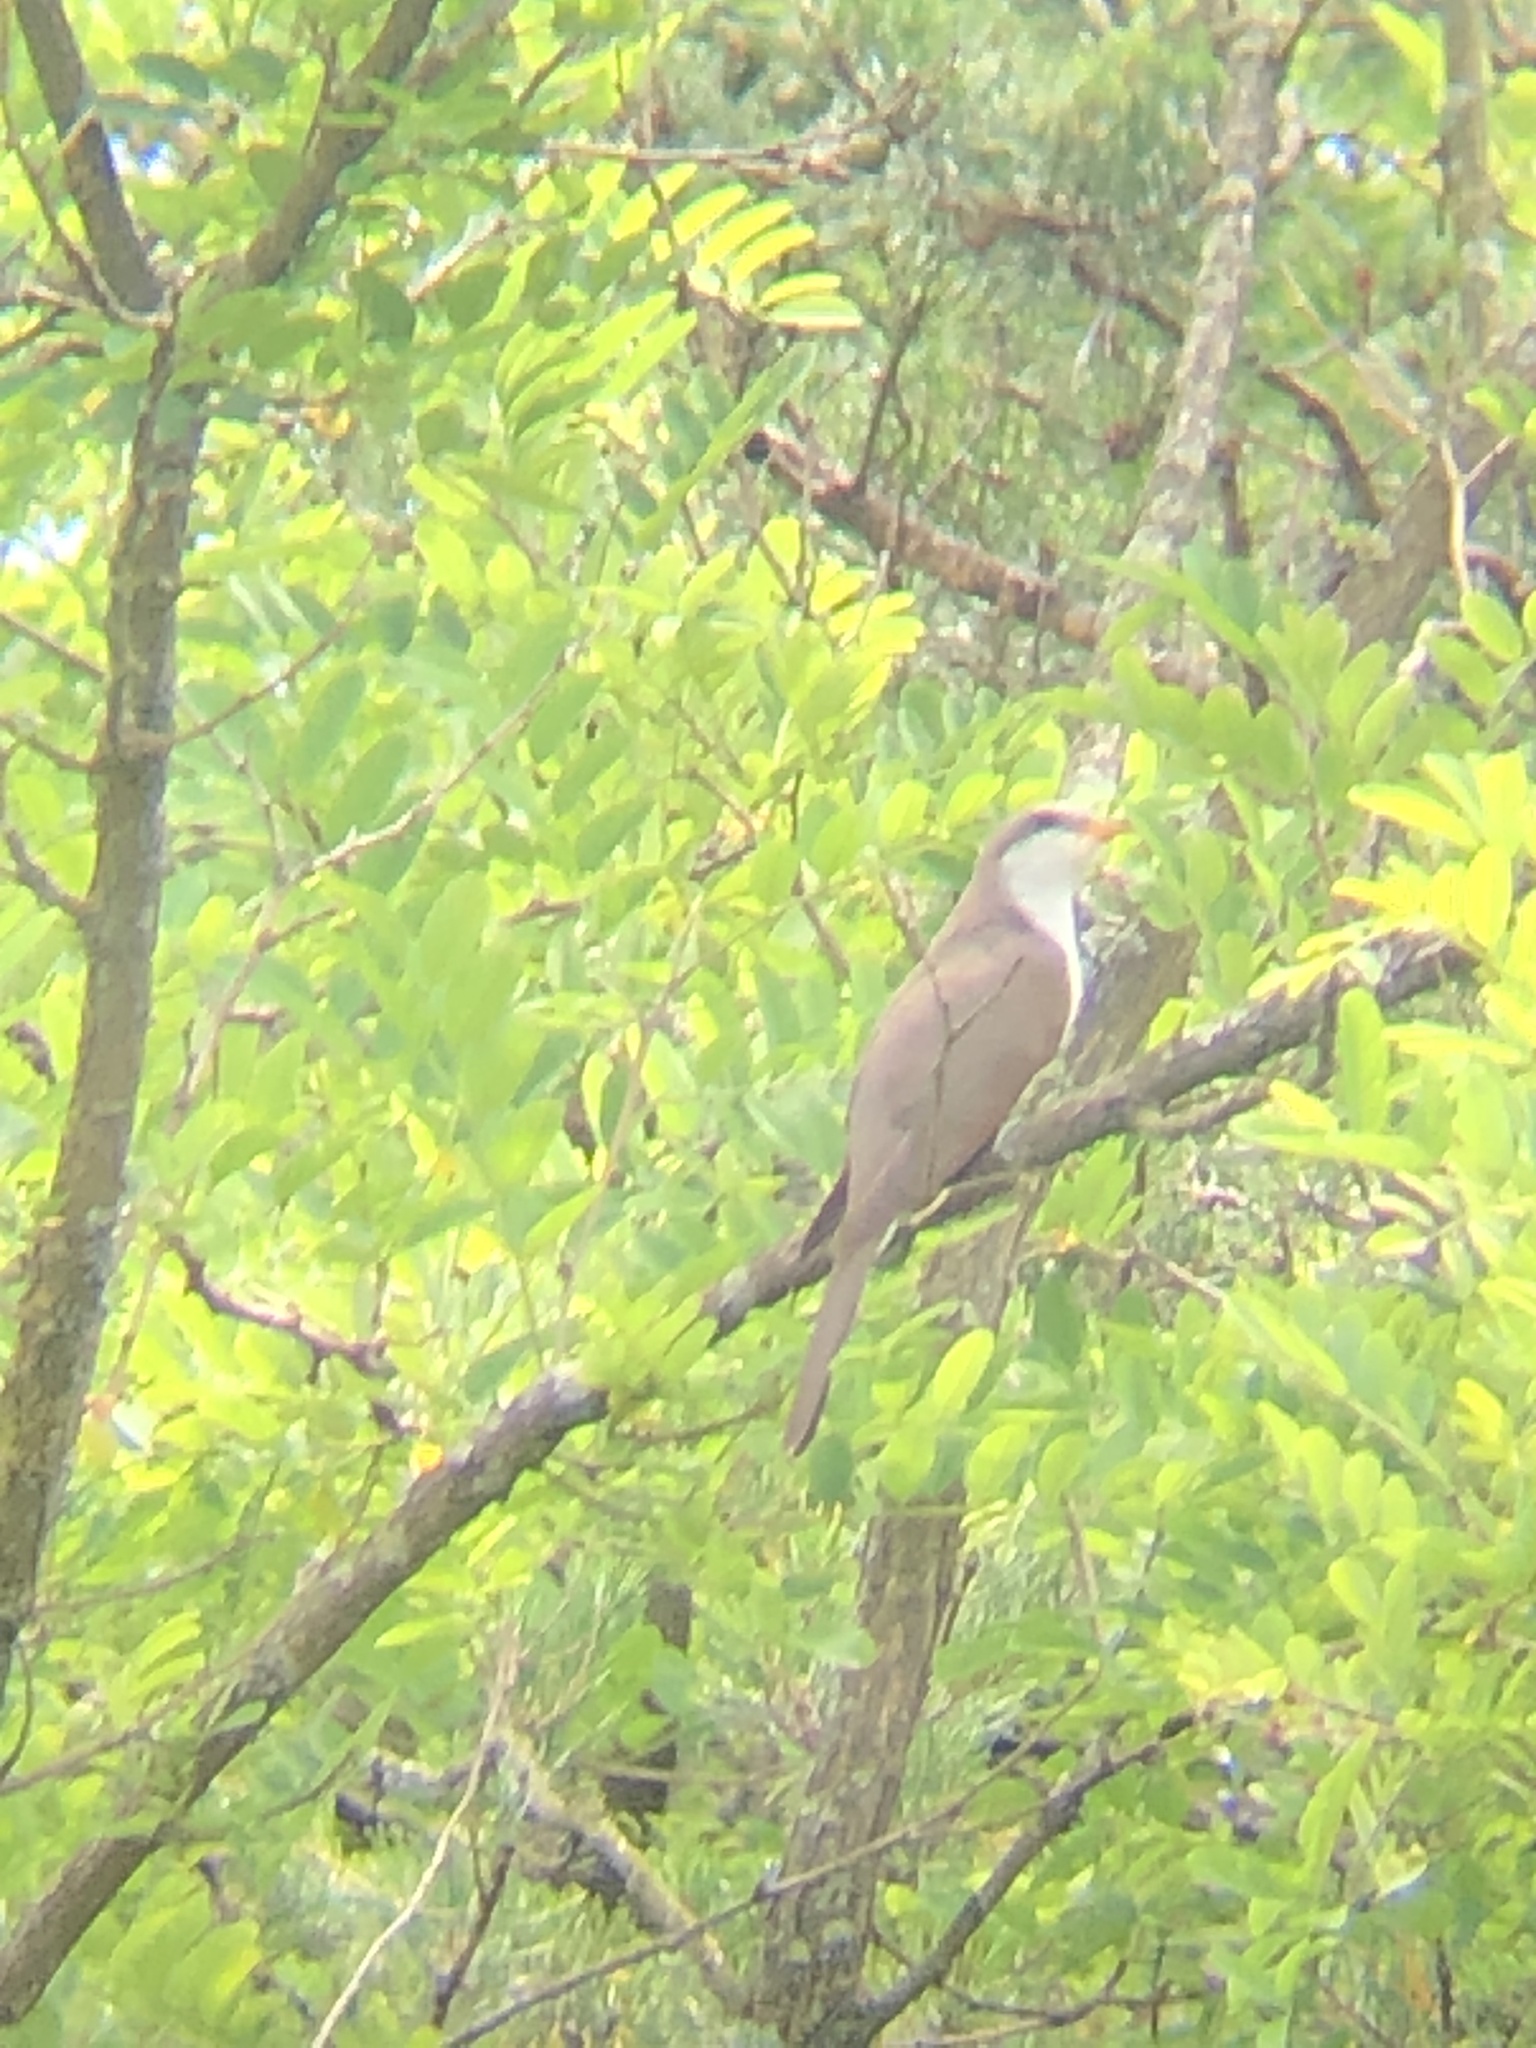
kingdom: Animalia
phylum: Chordata
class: Aves
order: Cuculiformes
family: Cuculidae
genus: Coccyzus
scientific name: Coccyzus americanus
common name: Yellow-billed cuckoo
